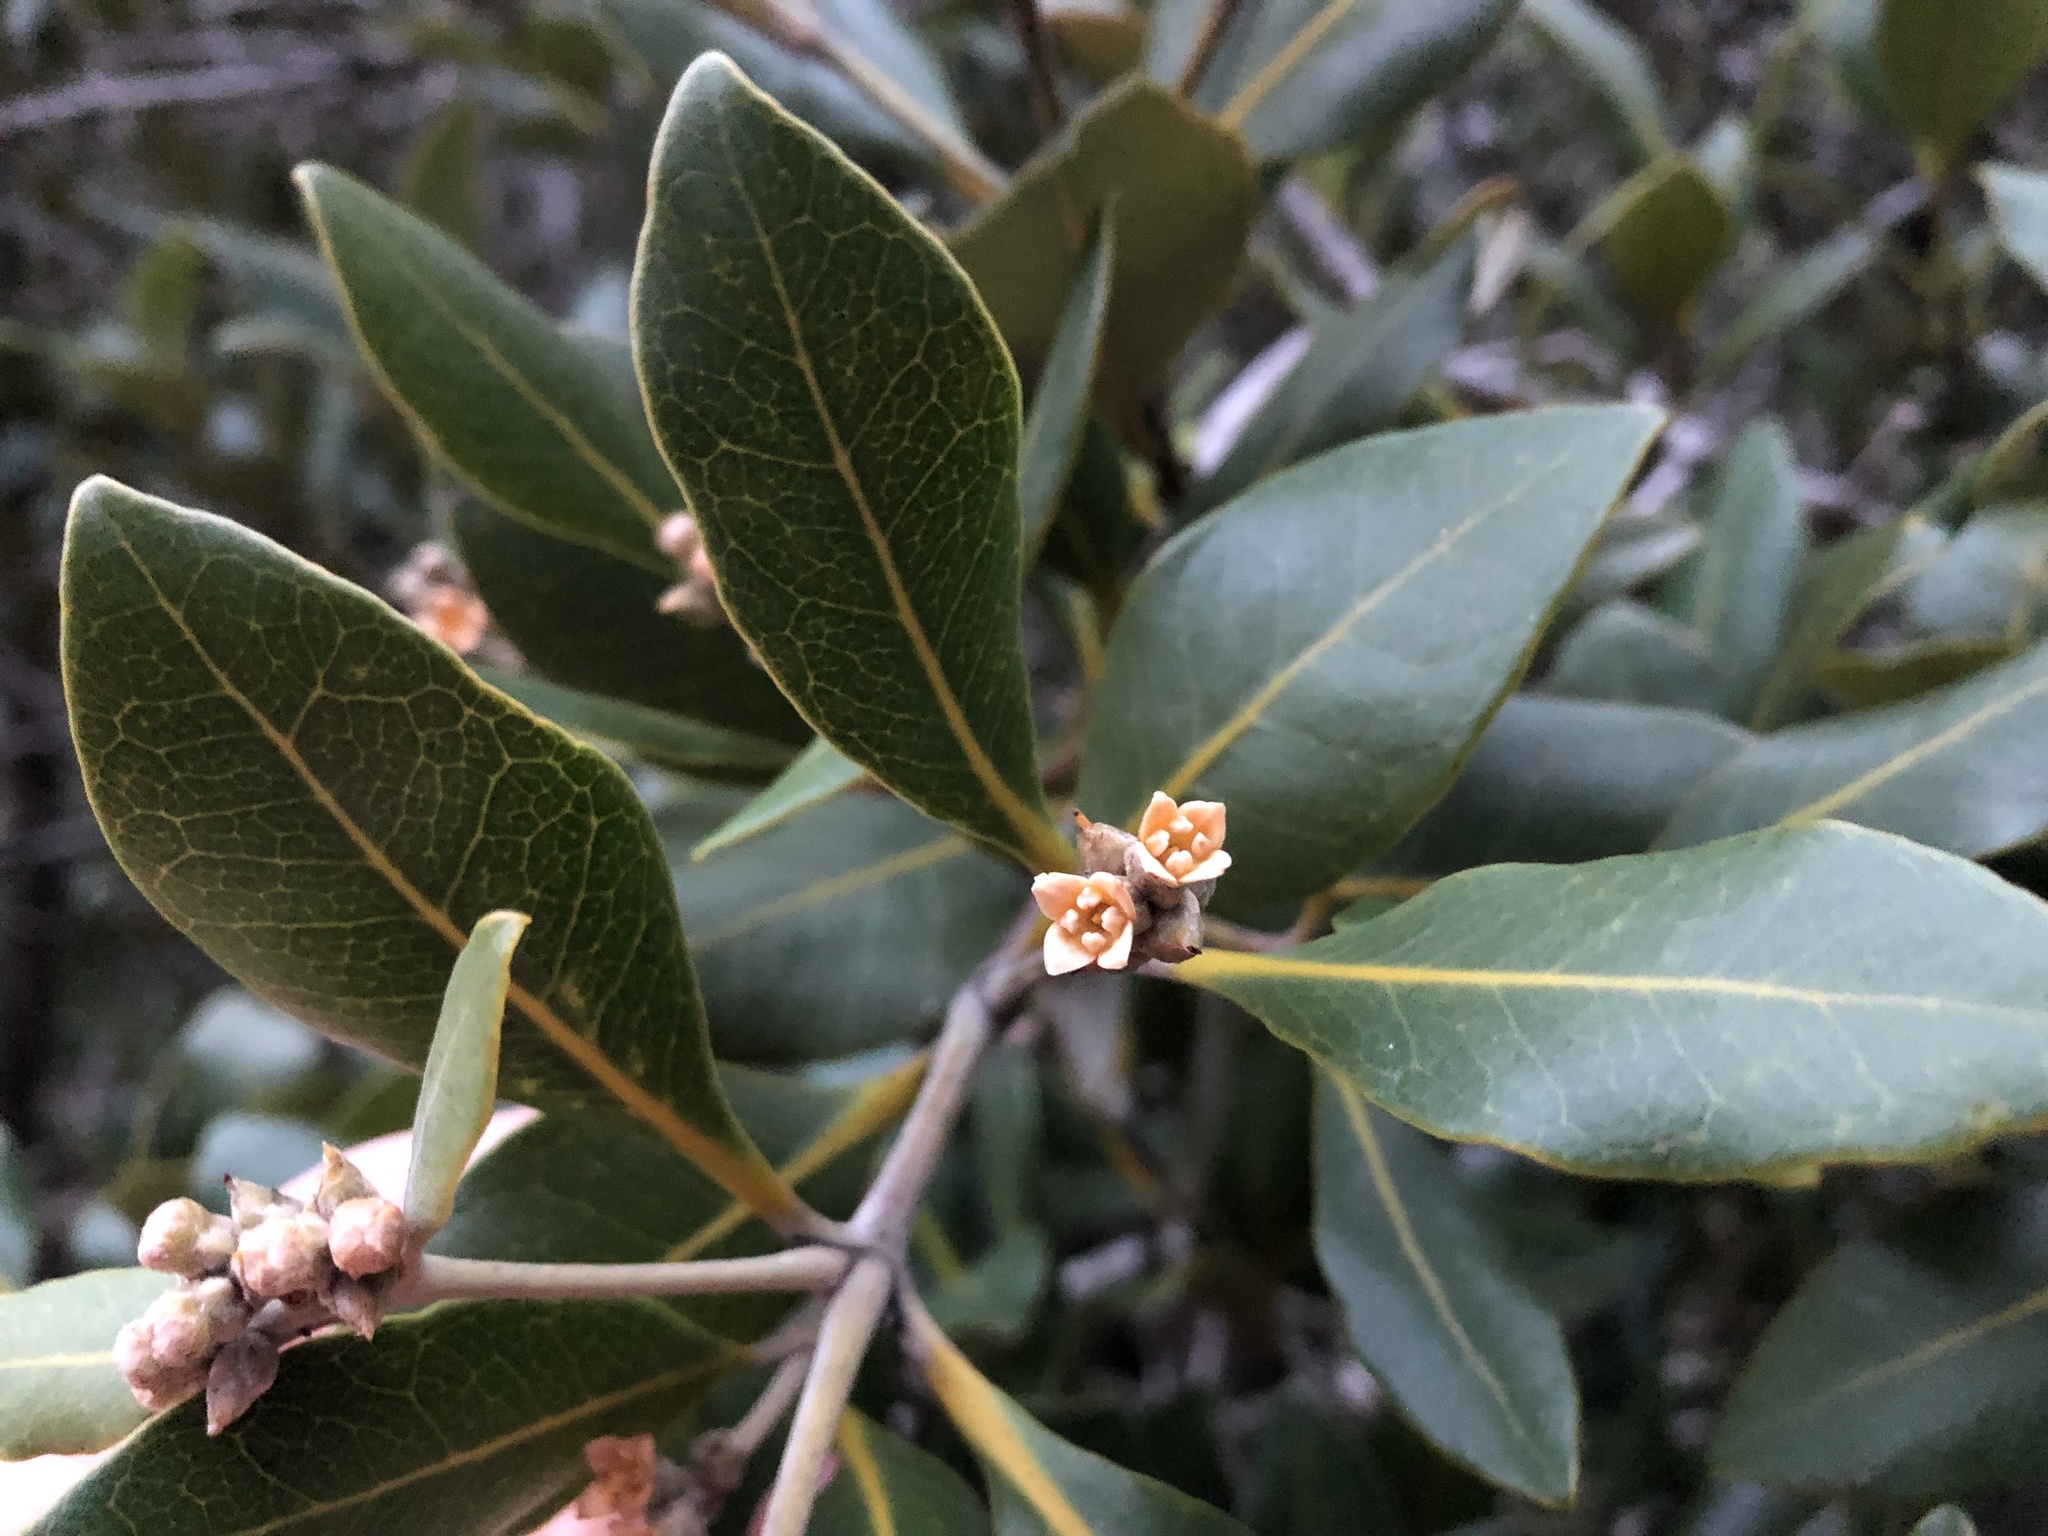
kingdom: Plantae
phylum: Tracheophyta
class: Magnoliopsida
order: Lamiales
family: Acanthaceae
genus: Avicennia
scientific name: Avicennia marina
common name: Gray mangrove
